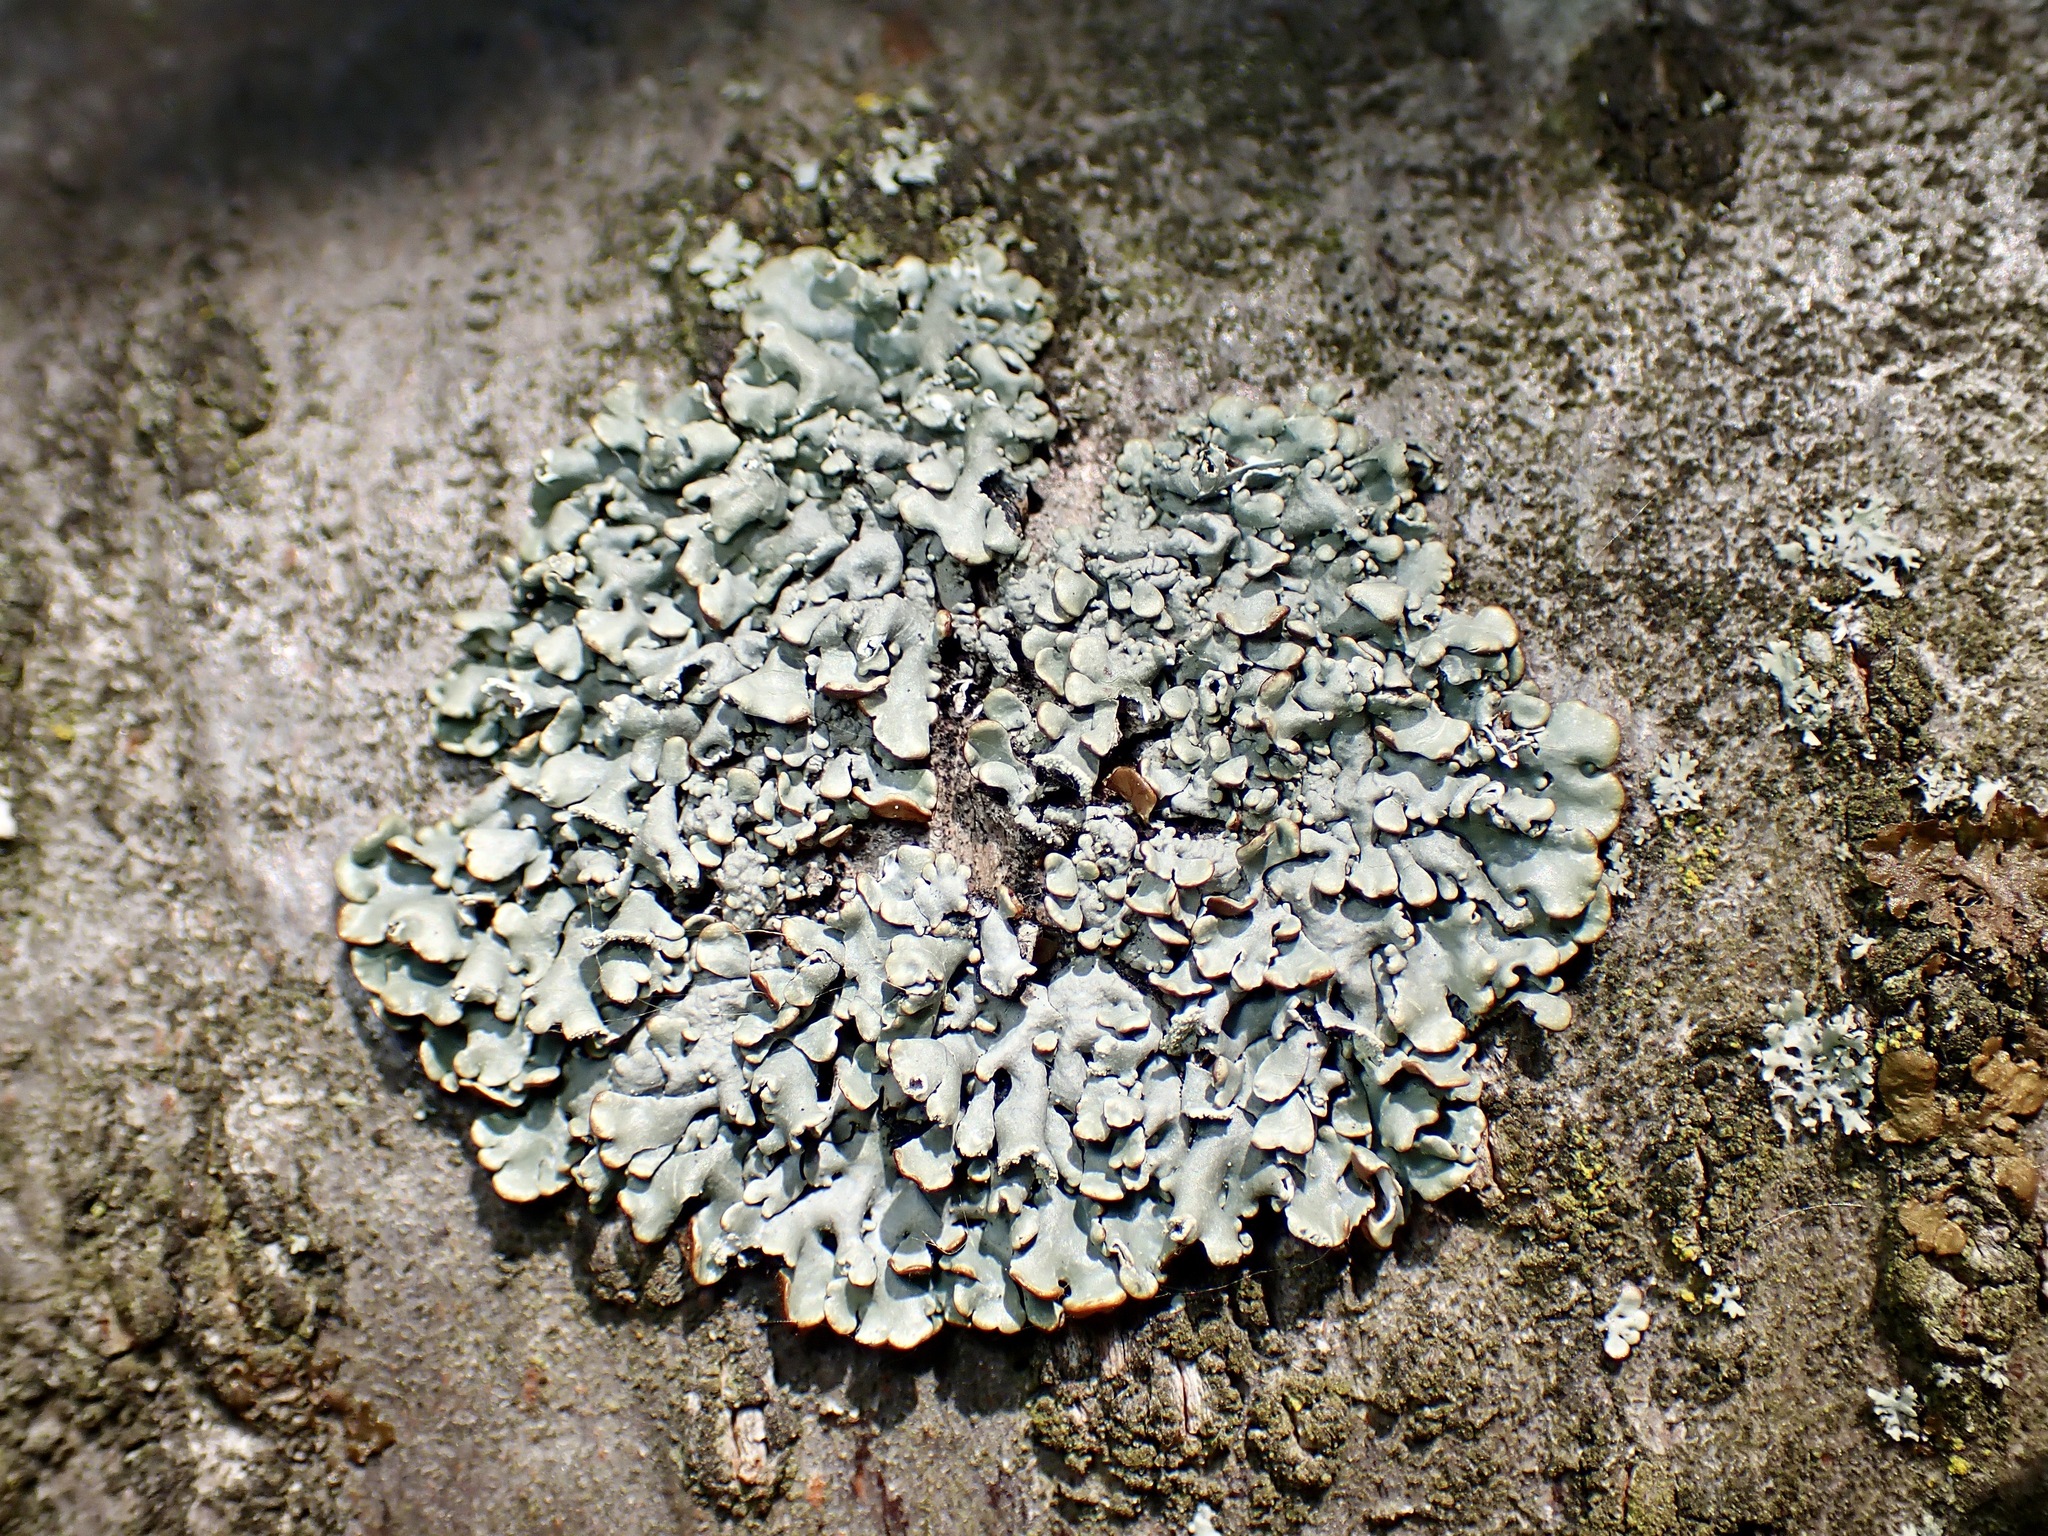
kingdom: Fungi
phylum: Ascomycota
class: Lecanoromycetes
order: Lecanorales
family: Parmeliaceae
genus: Hypogymnia
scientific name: Hypogymnia physodes
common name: Dark crottle
